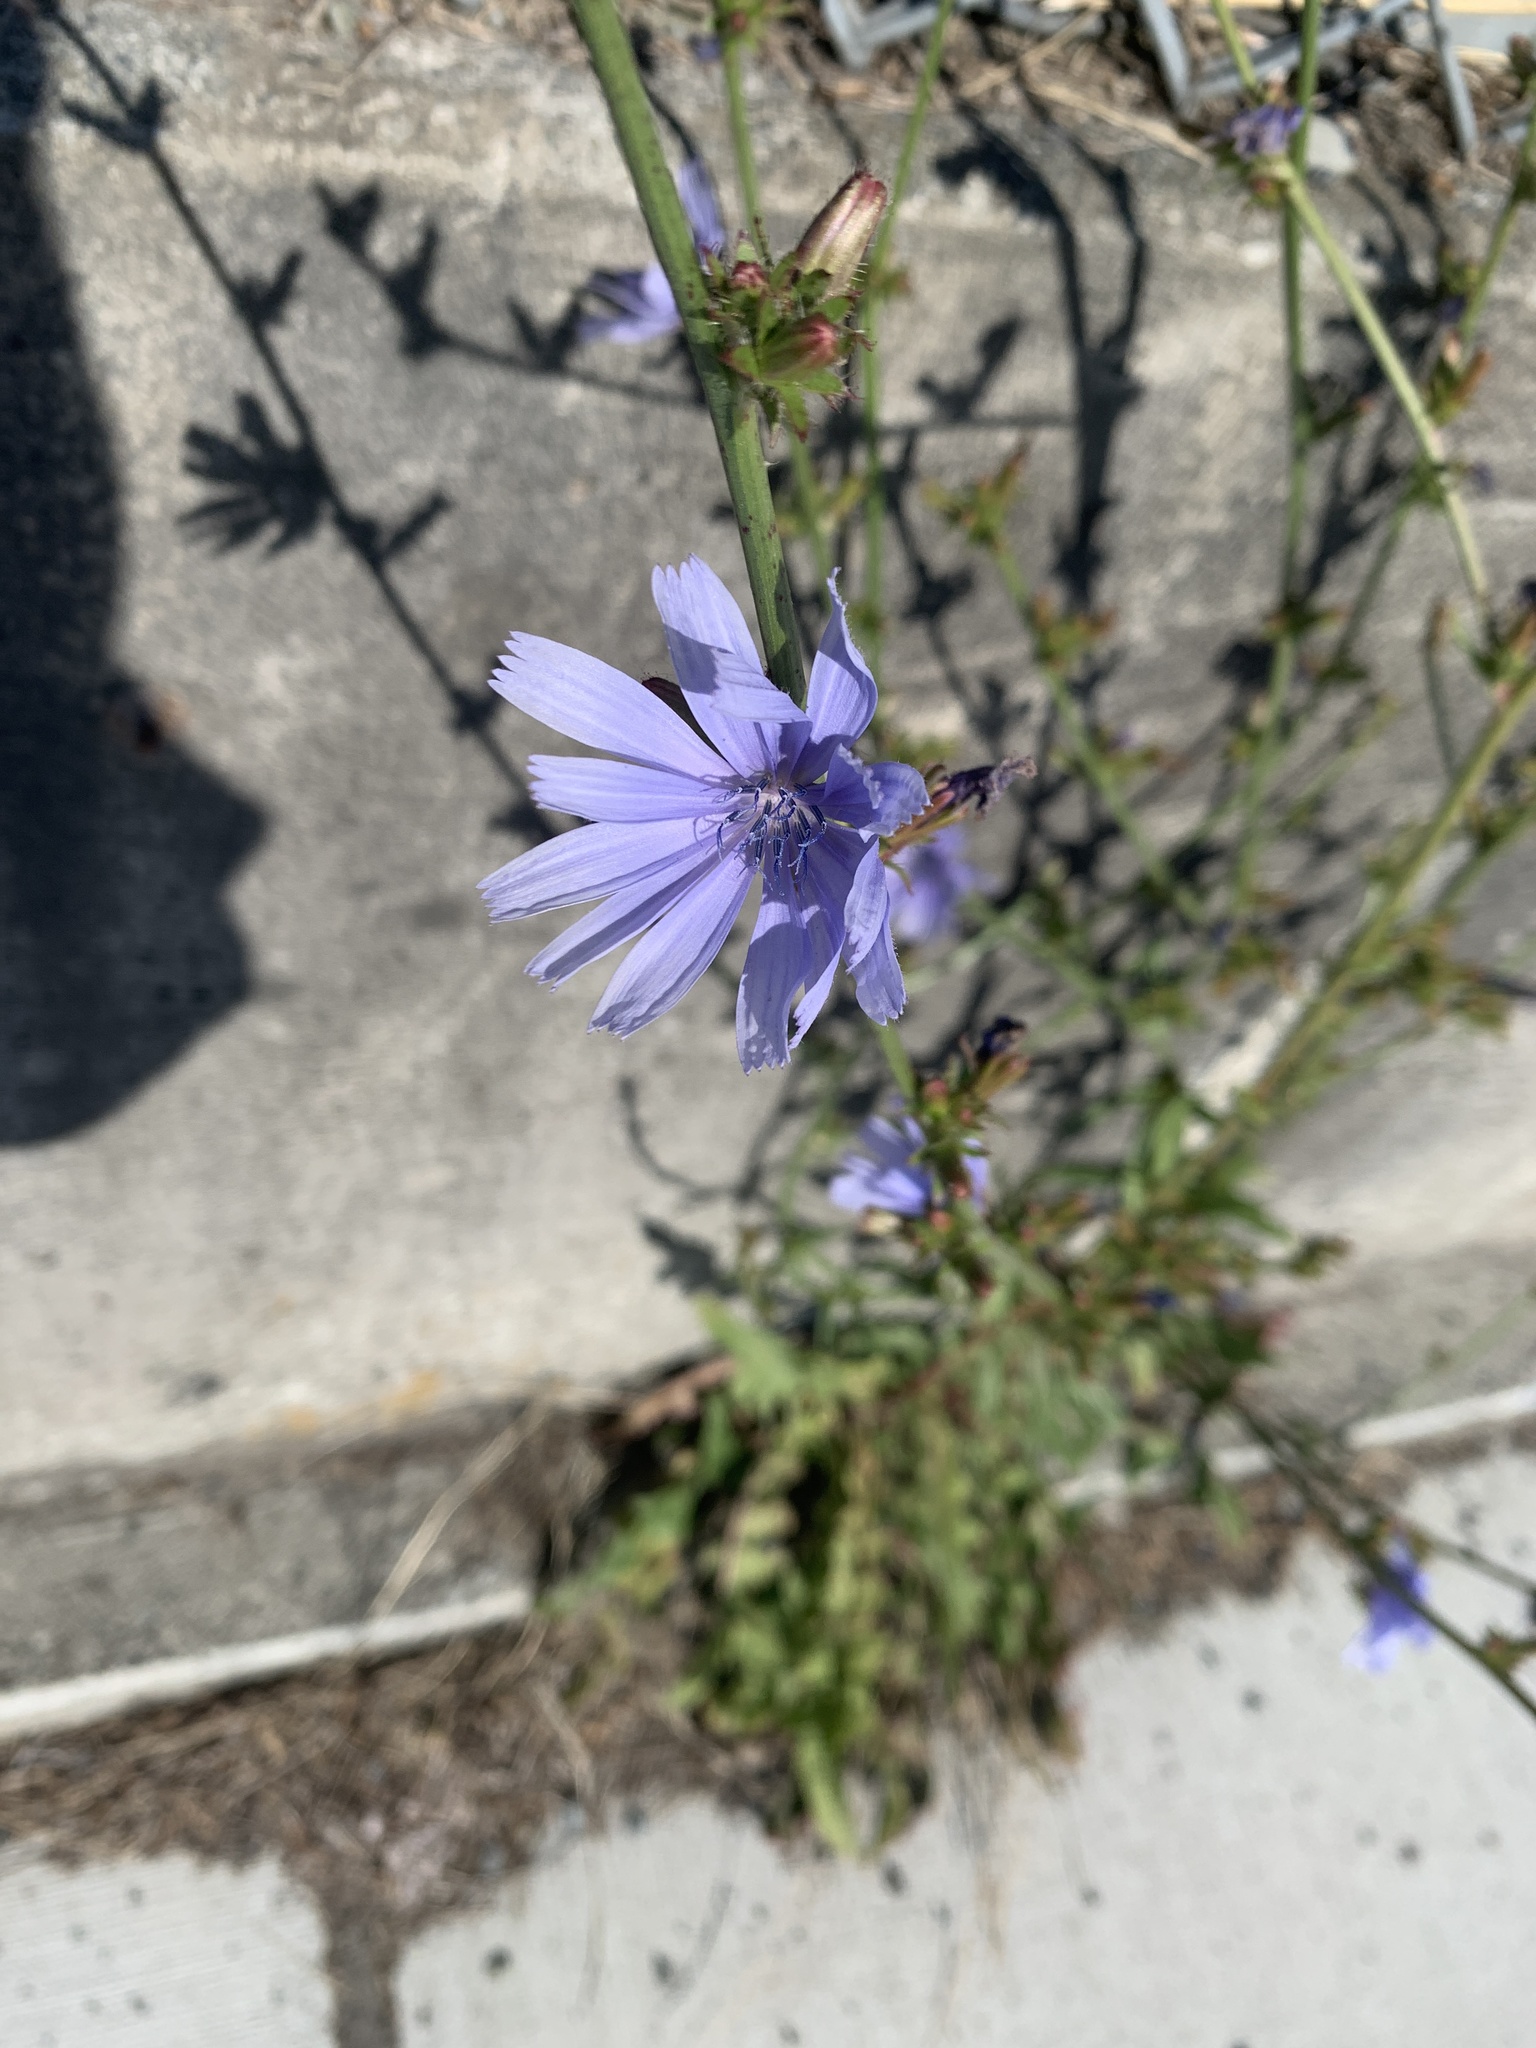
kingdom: Plantae
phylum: Tracheophyta
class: Magnoliopsida
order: Asterales
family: Asteraceae
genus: Cichorium
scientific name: Cichorium intybus
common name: Chicory
